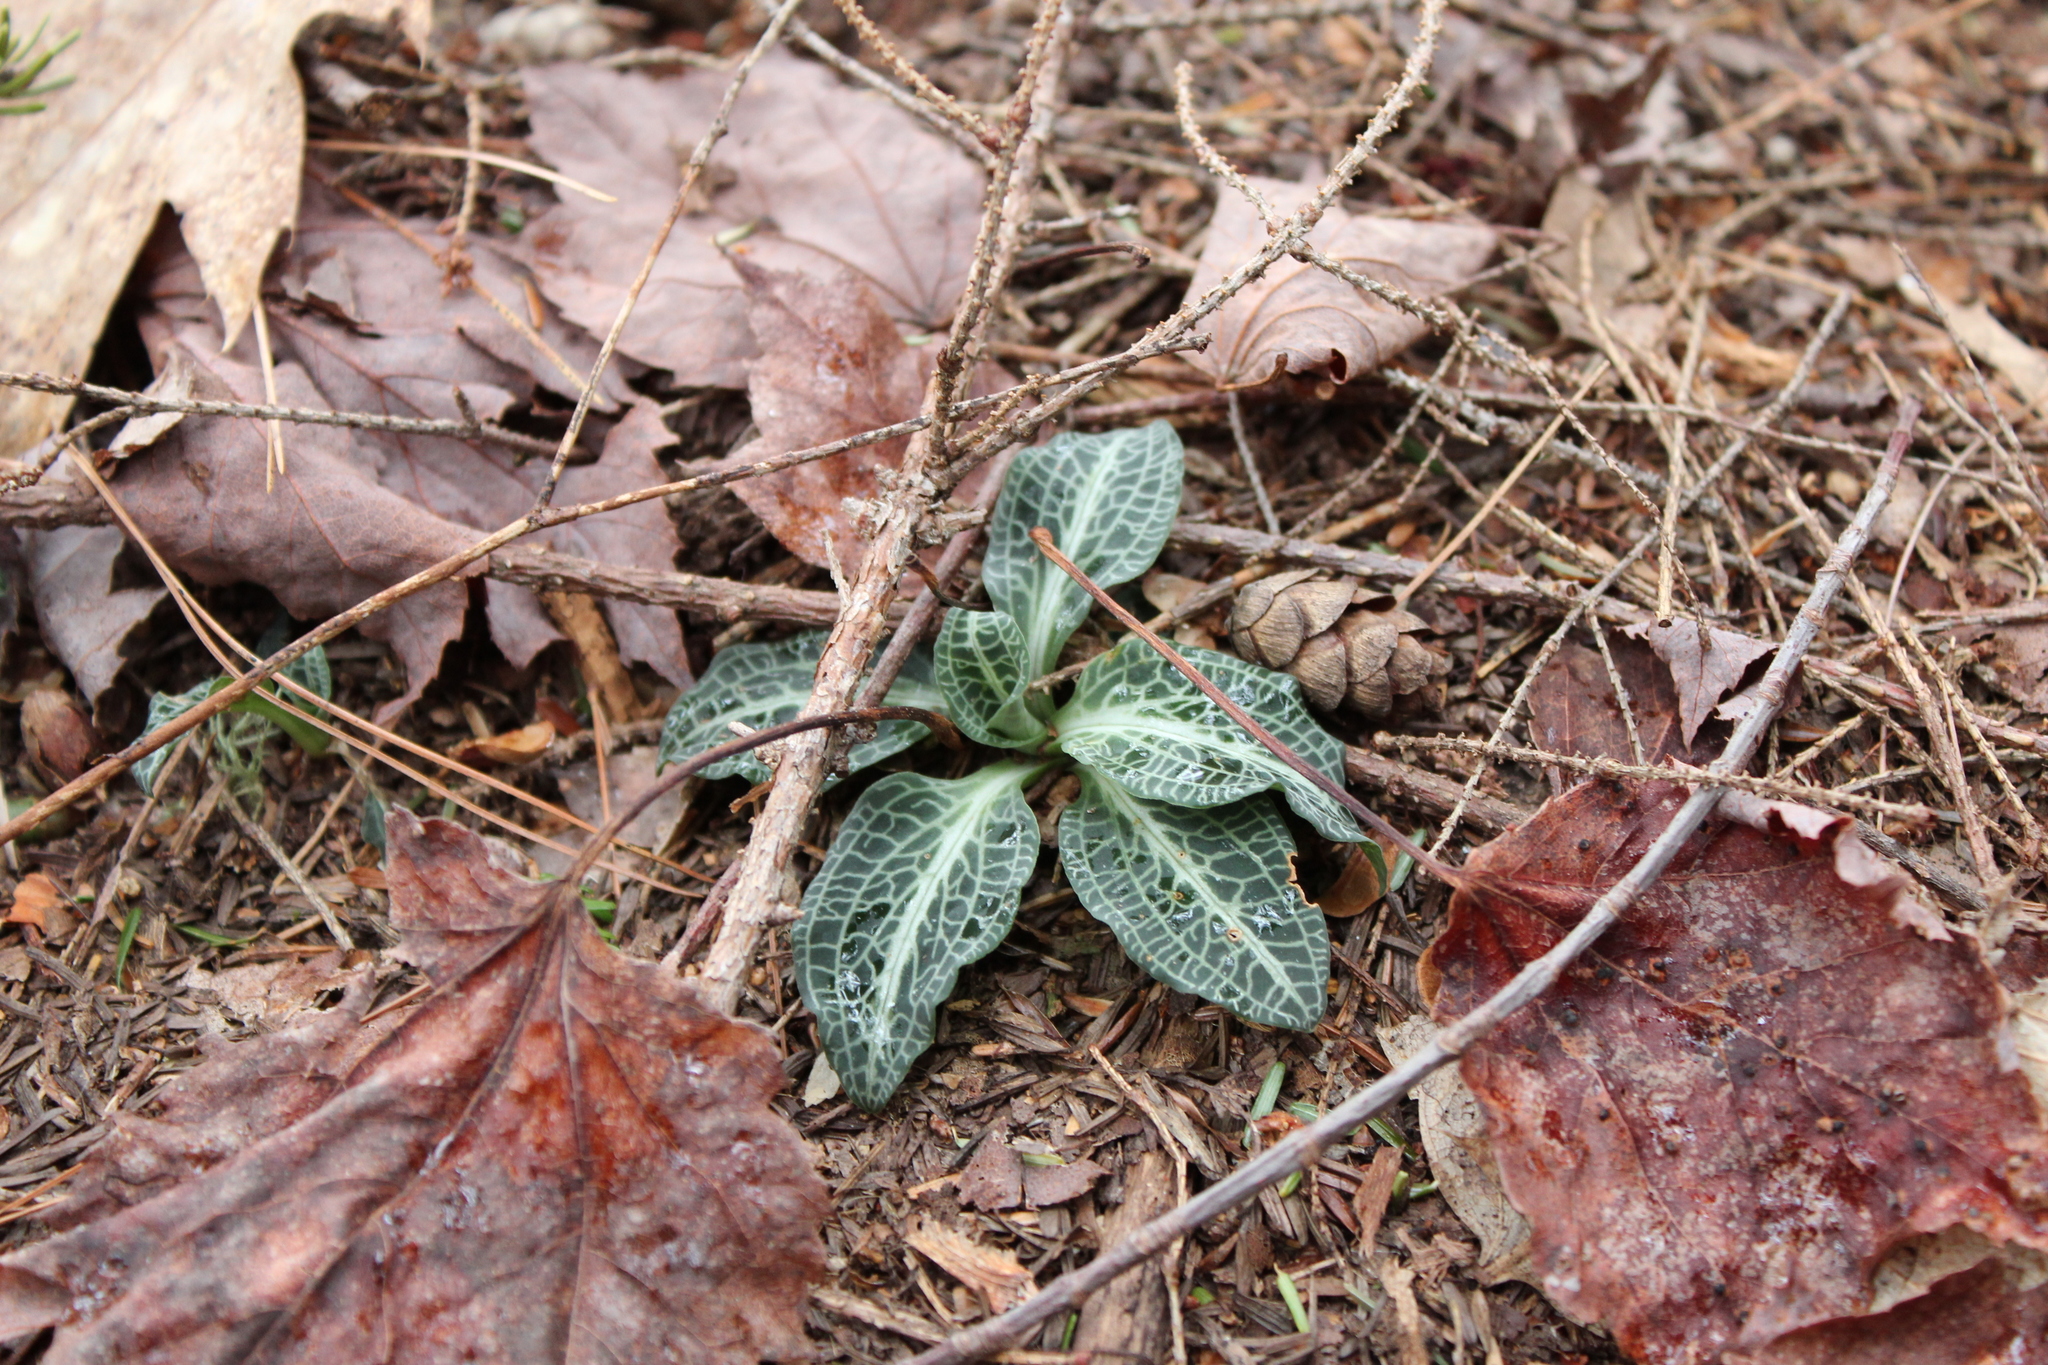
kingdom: Plantae
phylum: Tracheophyta
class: Liliopsida
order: Asparagales
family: Orchidaceae
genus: Goodyera
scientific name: Goodyera pubescens
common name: Downy rattlesnake-plantain
